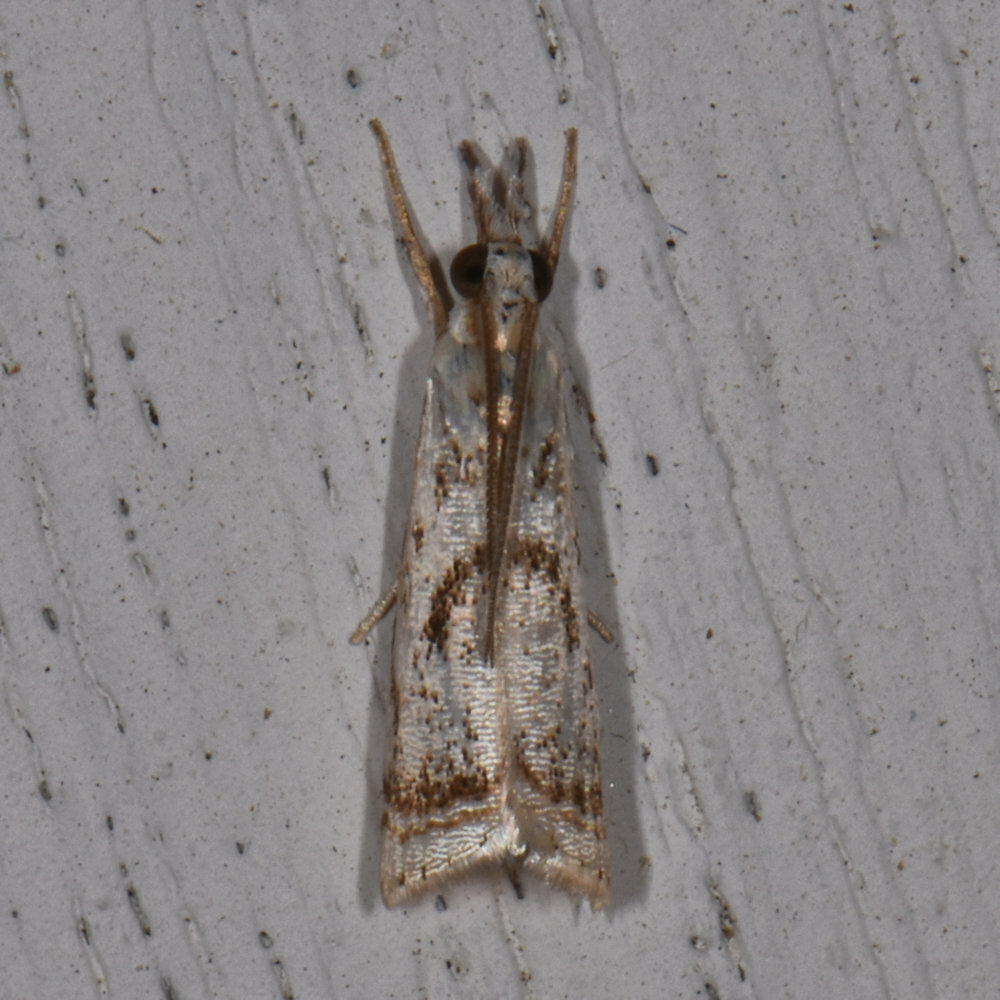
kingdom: Animalia
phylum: Arthropoda
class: Insecta
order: Lepidoptera
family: Crambidae
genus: Microcrambus
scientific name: Microcrambus elegans
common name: Elegant grass-veneer
